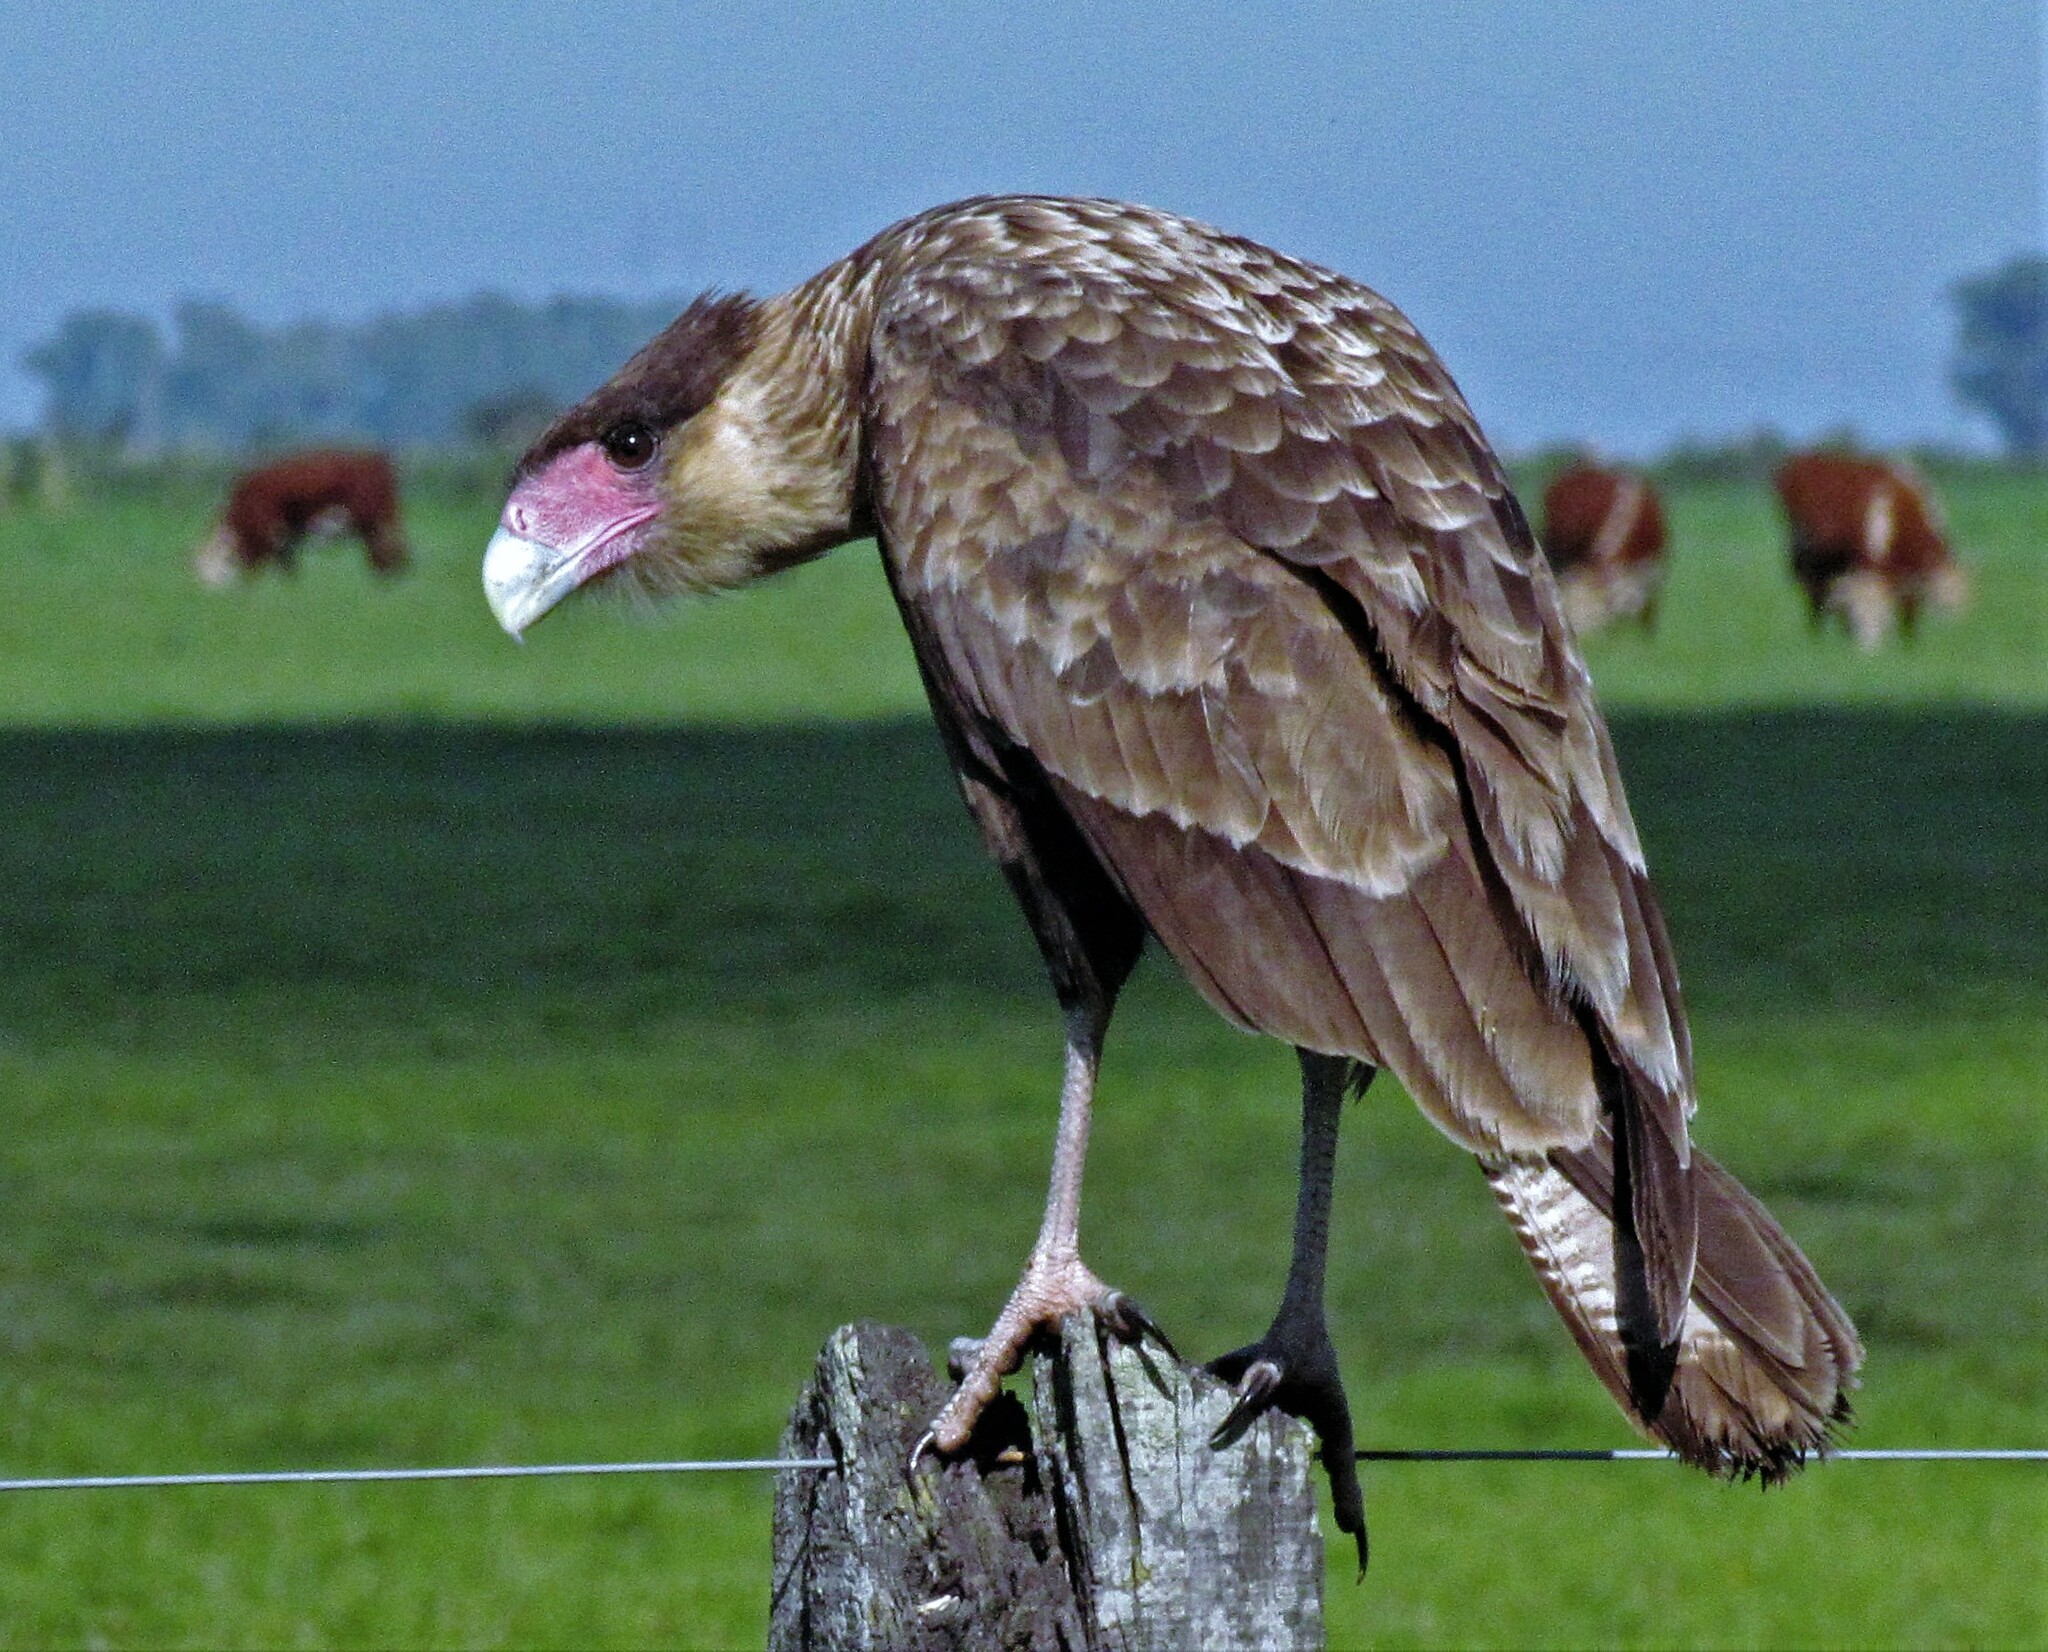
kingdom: Animalia
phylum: Chordata
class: Aves
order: Falconiformes
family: Falconidae
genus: Caracara
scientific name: Caracara plancus
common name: Southern caracara
